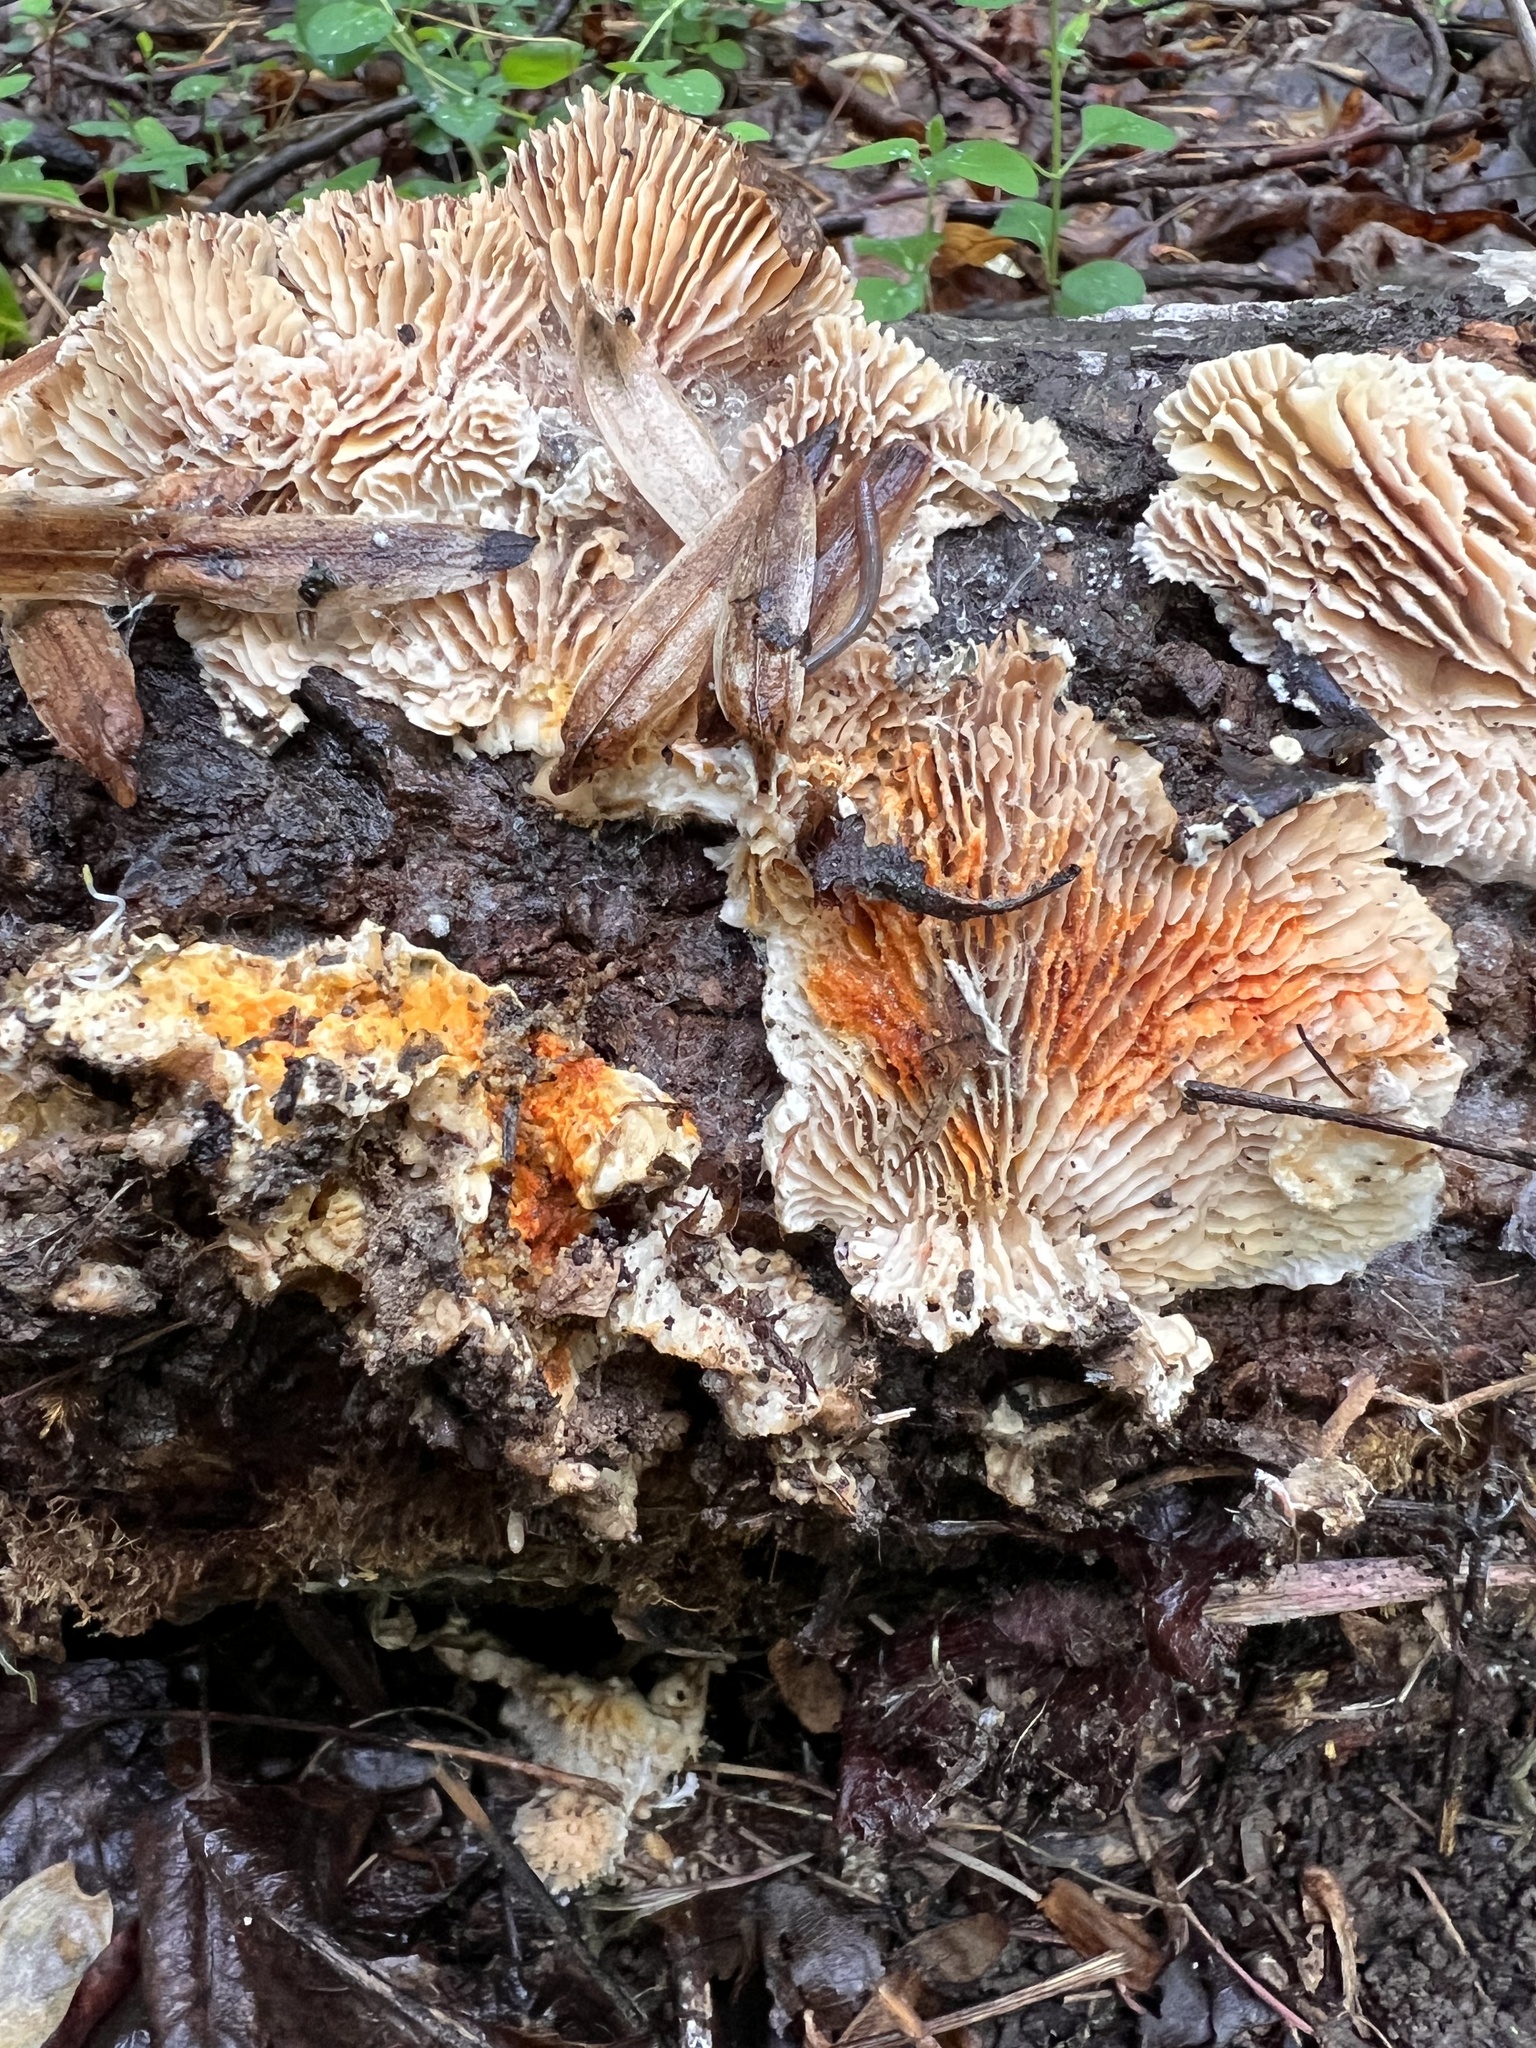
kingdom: Fungi
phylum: Basidiomycota
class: Agaricomycetes
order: Polyporales
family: Polyporaceae
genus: Lenzites
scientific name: Lenzites betulinus
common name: Birch mazegill
